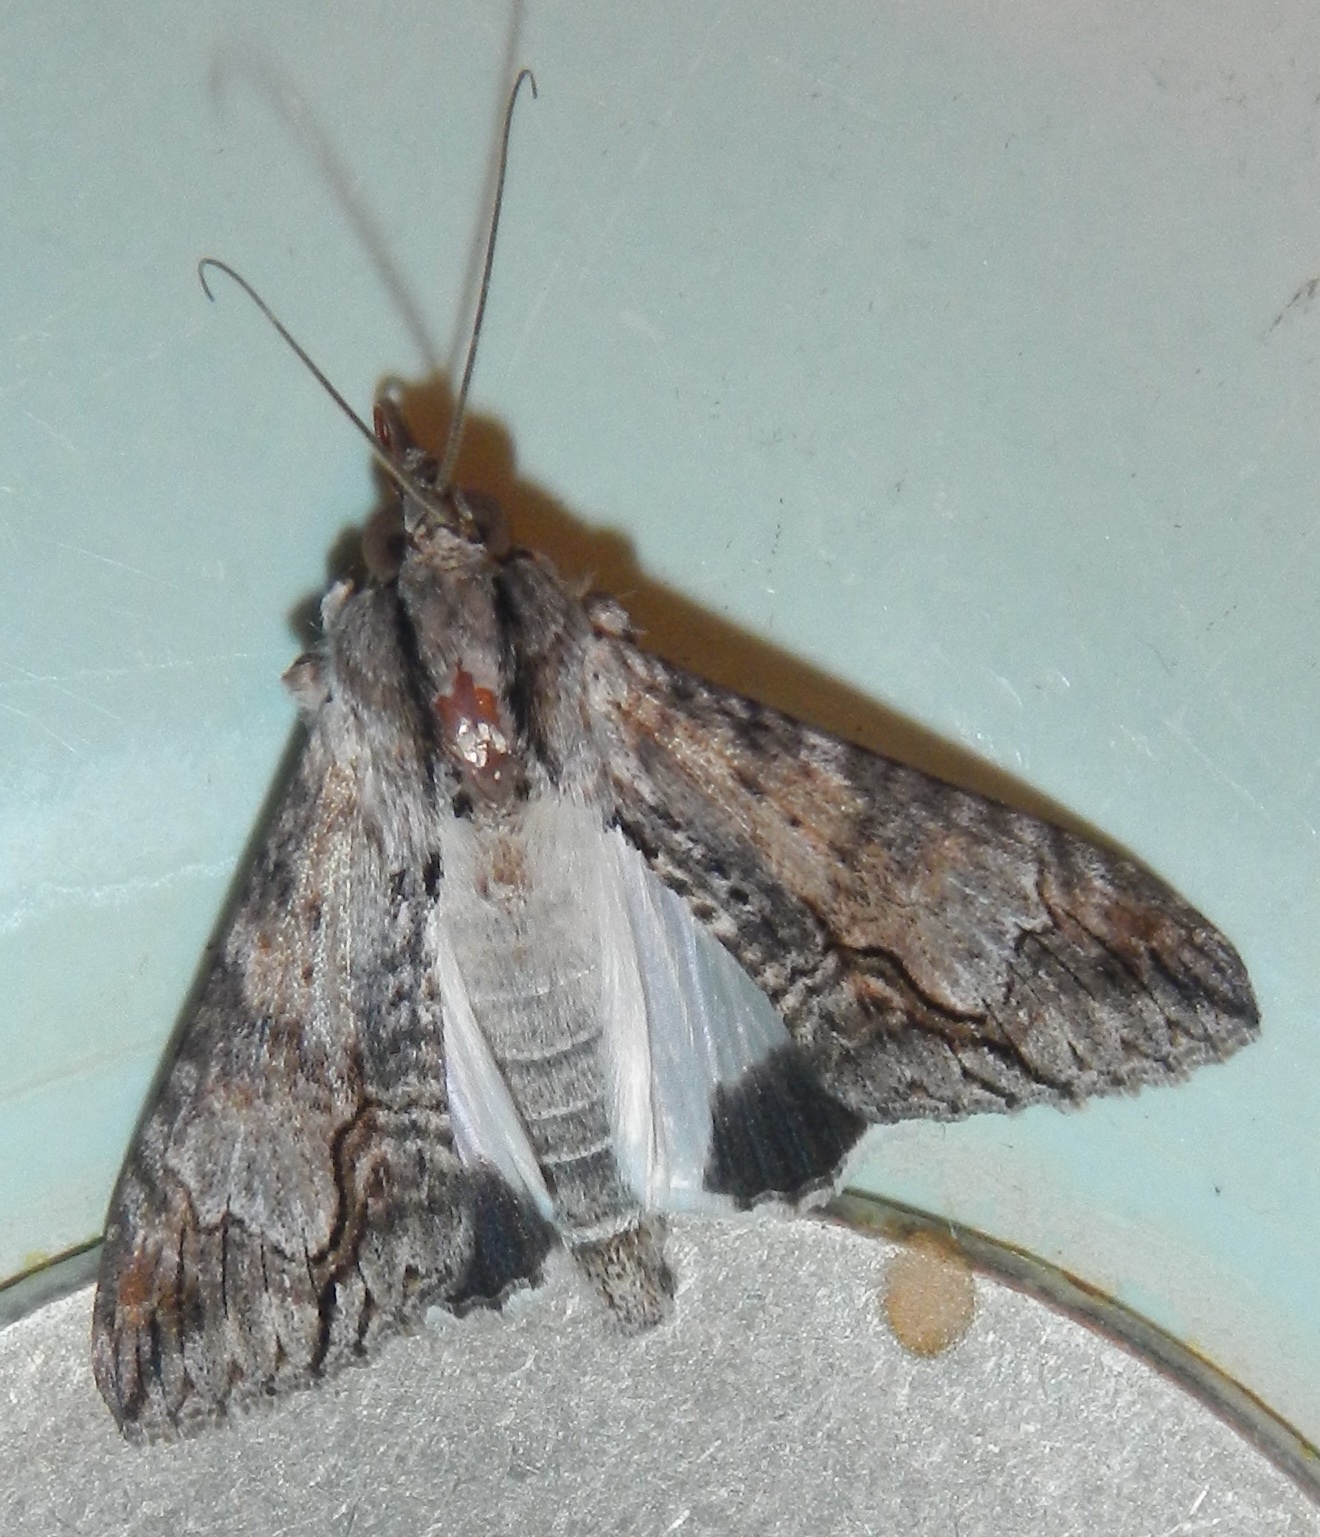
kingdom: Animalia
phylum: Arthropoda
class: Insecta
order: Lepidoptera
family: Erebidae
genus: Melipotis
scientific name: Melipotis acontioides
